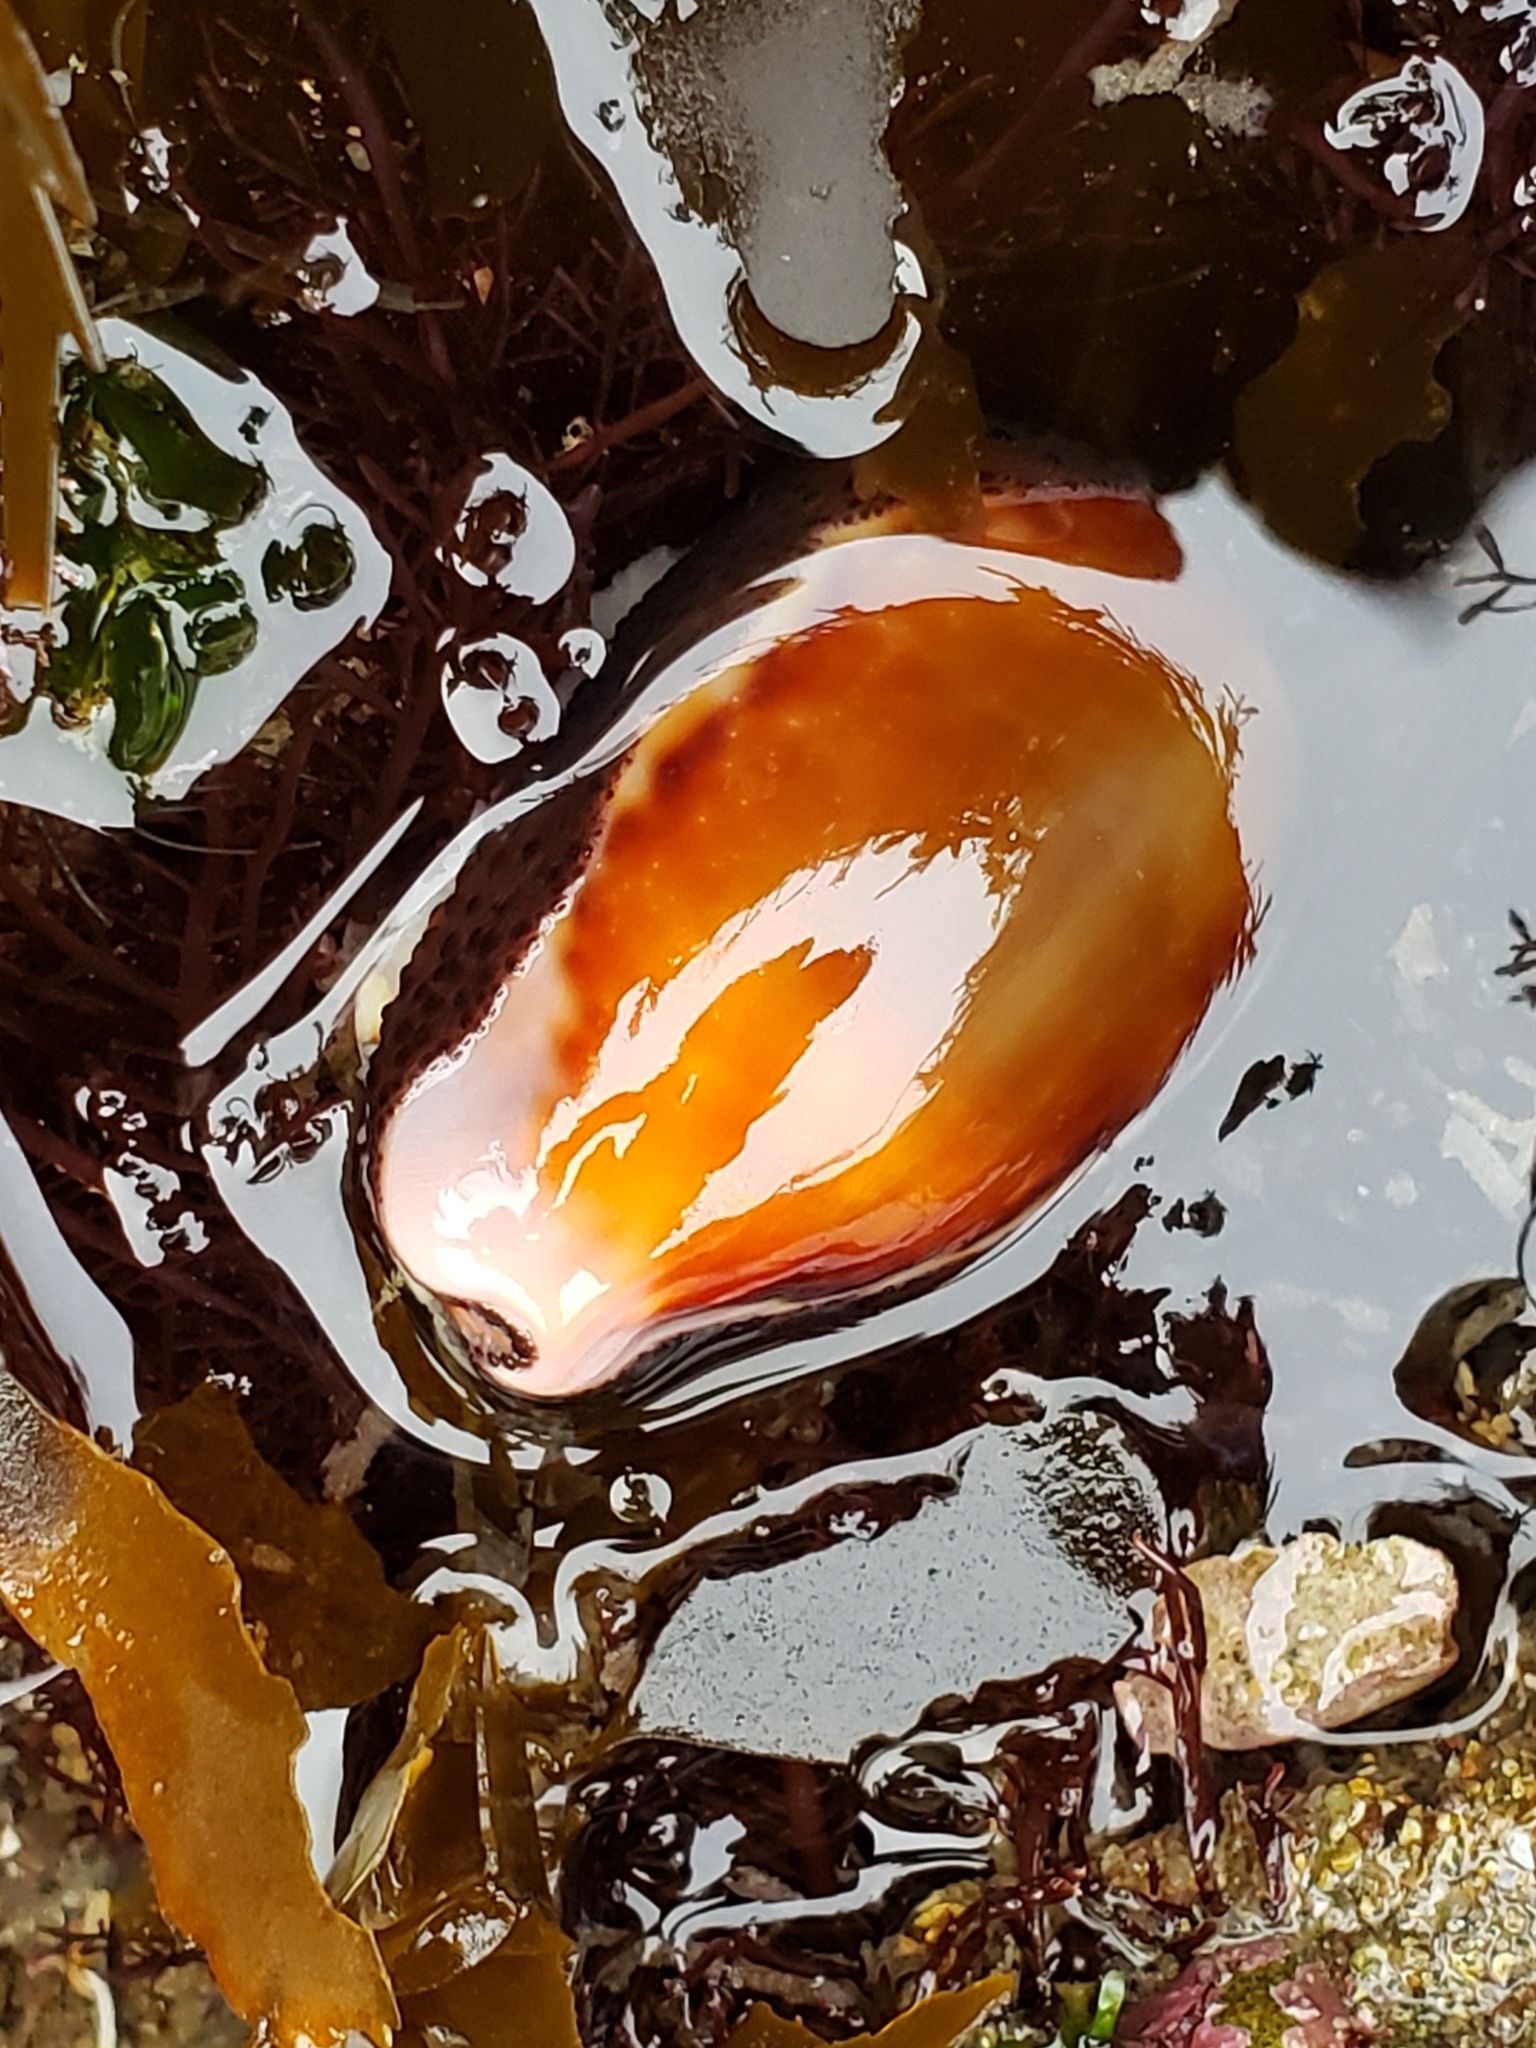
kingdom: Animalia
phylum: Mollusca
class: Gastropoda
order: Littorinimorpha
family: Cypraeidae
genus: Neobernaya
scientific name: Neobernaya spadicea
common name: Chestnut cowrie
